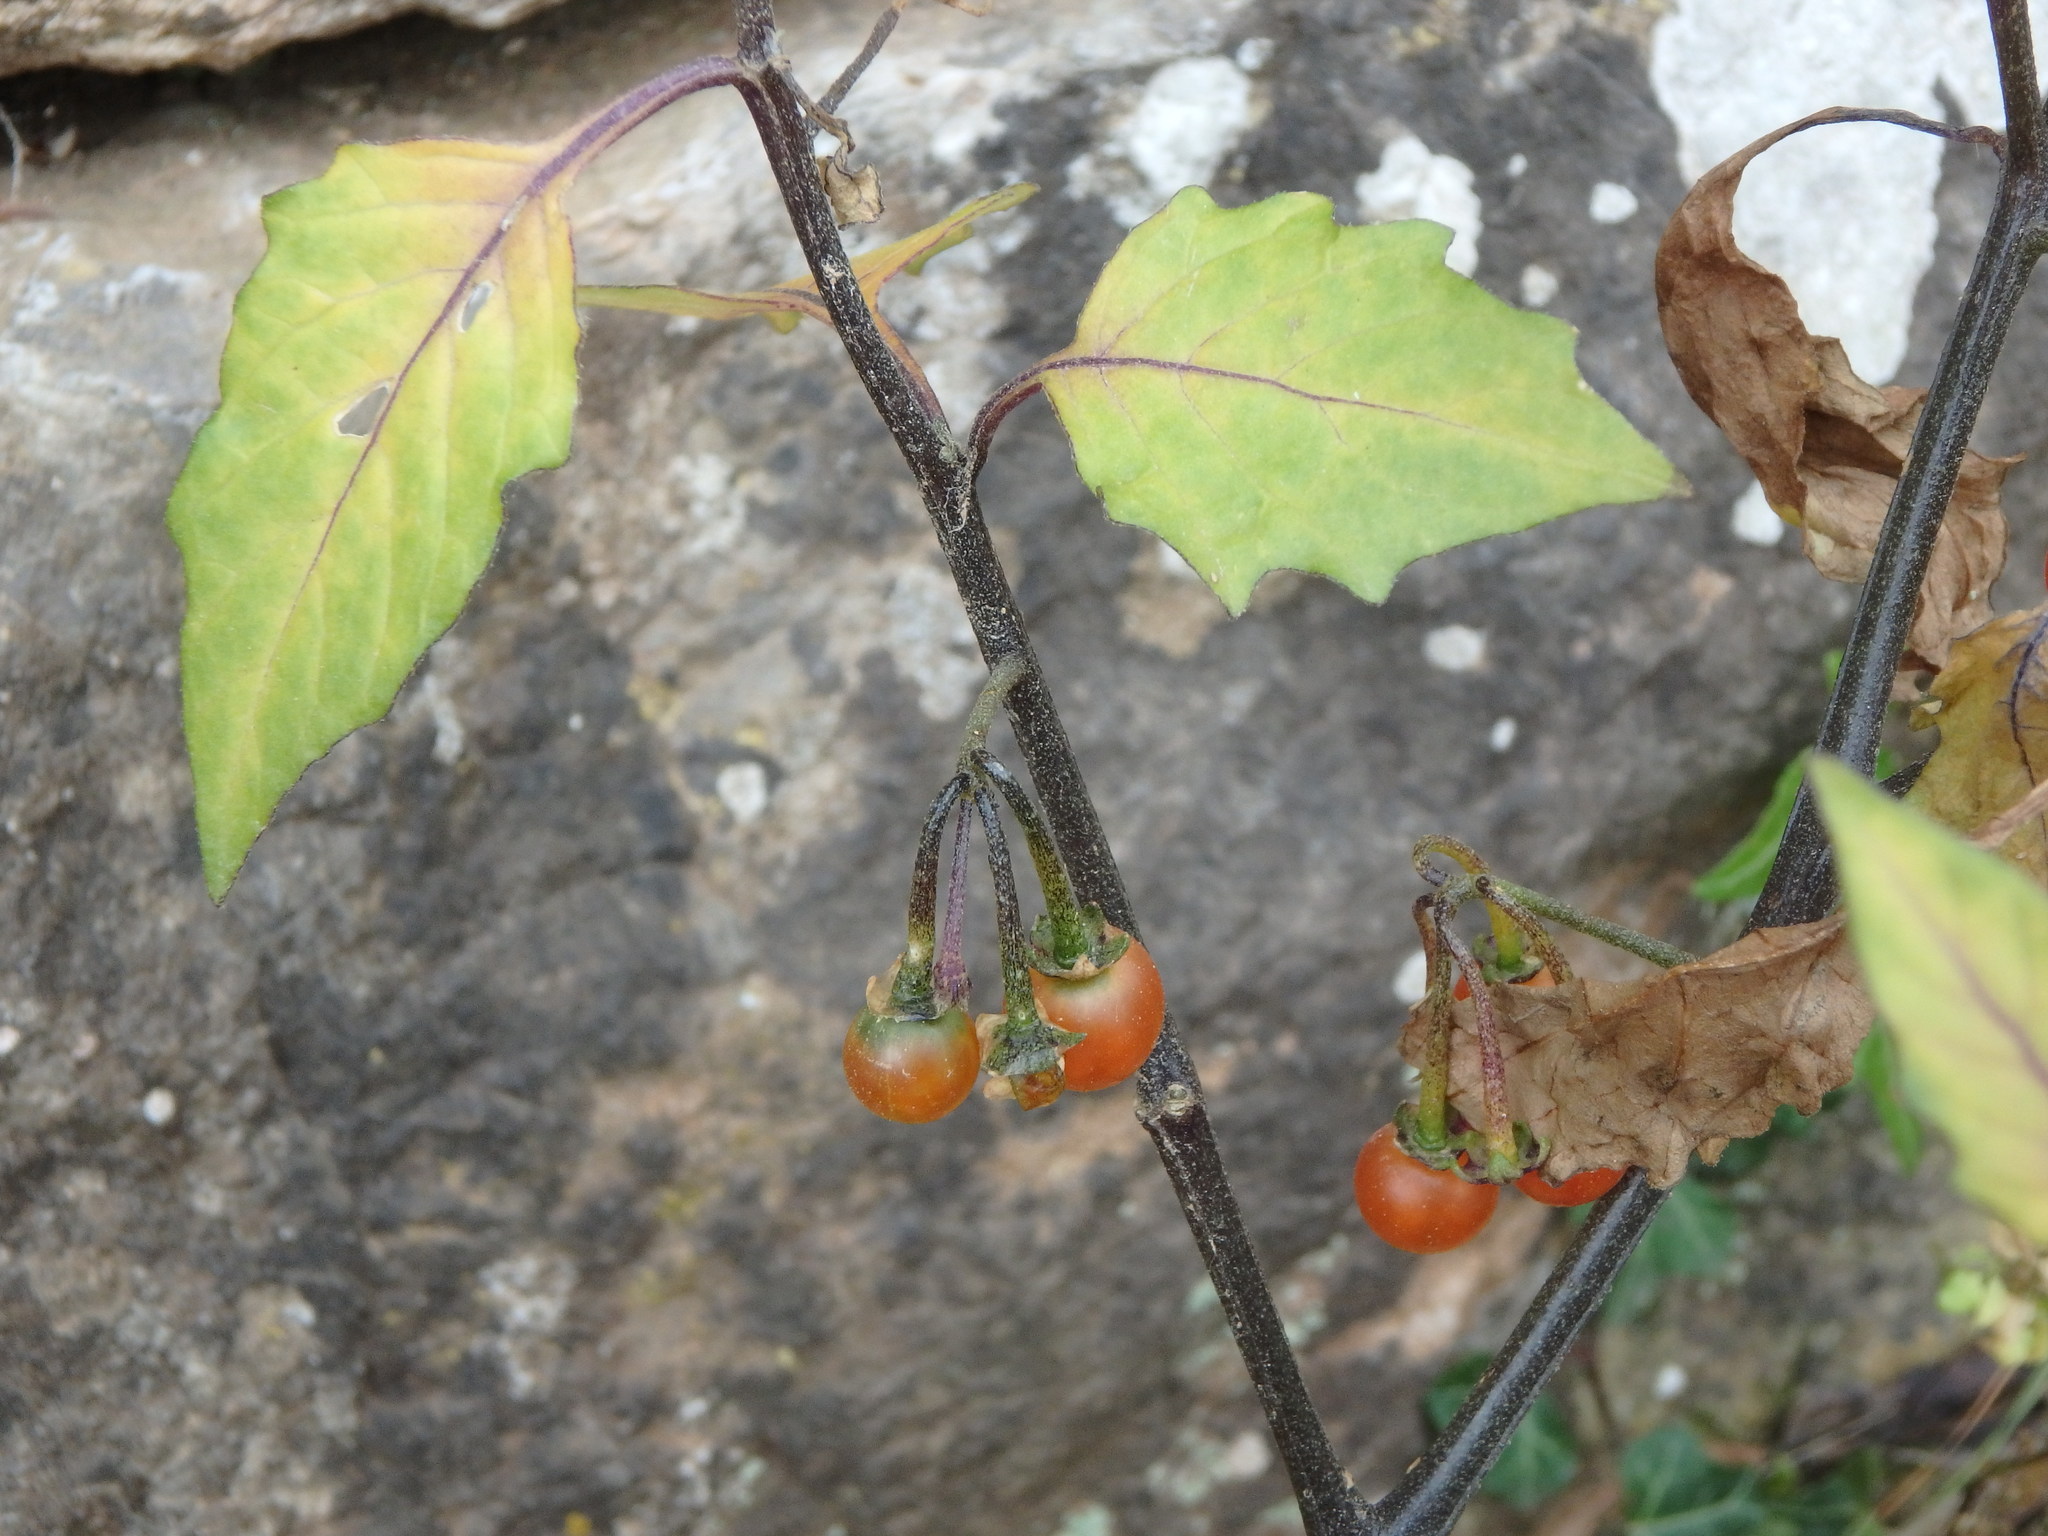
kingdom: Plantae
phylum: Tracheophyta
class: Magnoliopsida
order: Solanales
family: Solanaceae
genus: Solanum
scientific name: Solanum villosum
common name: Red nightshade
